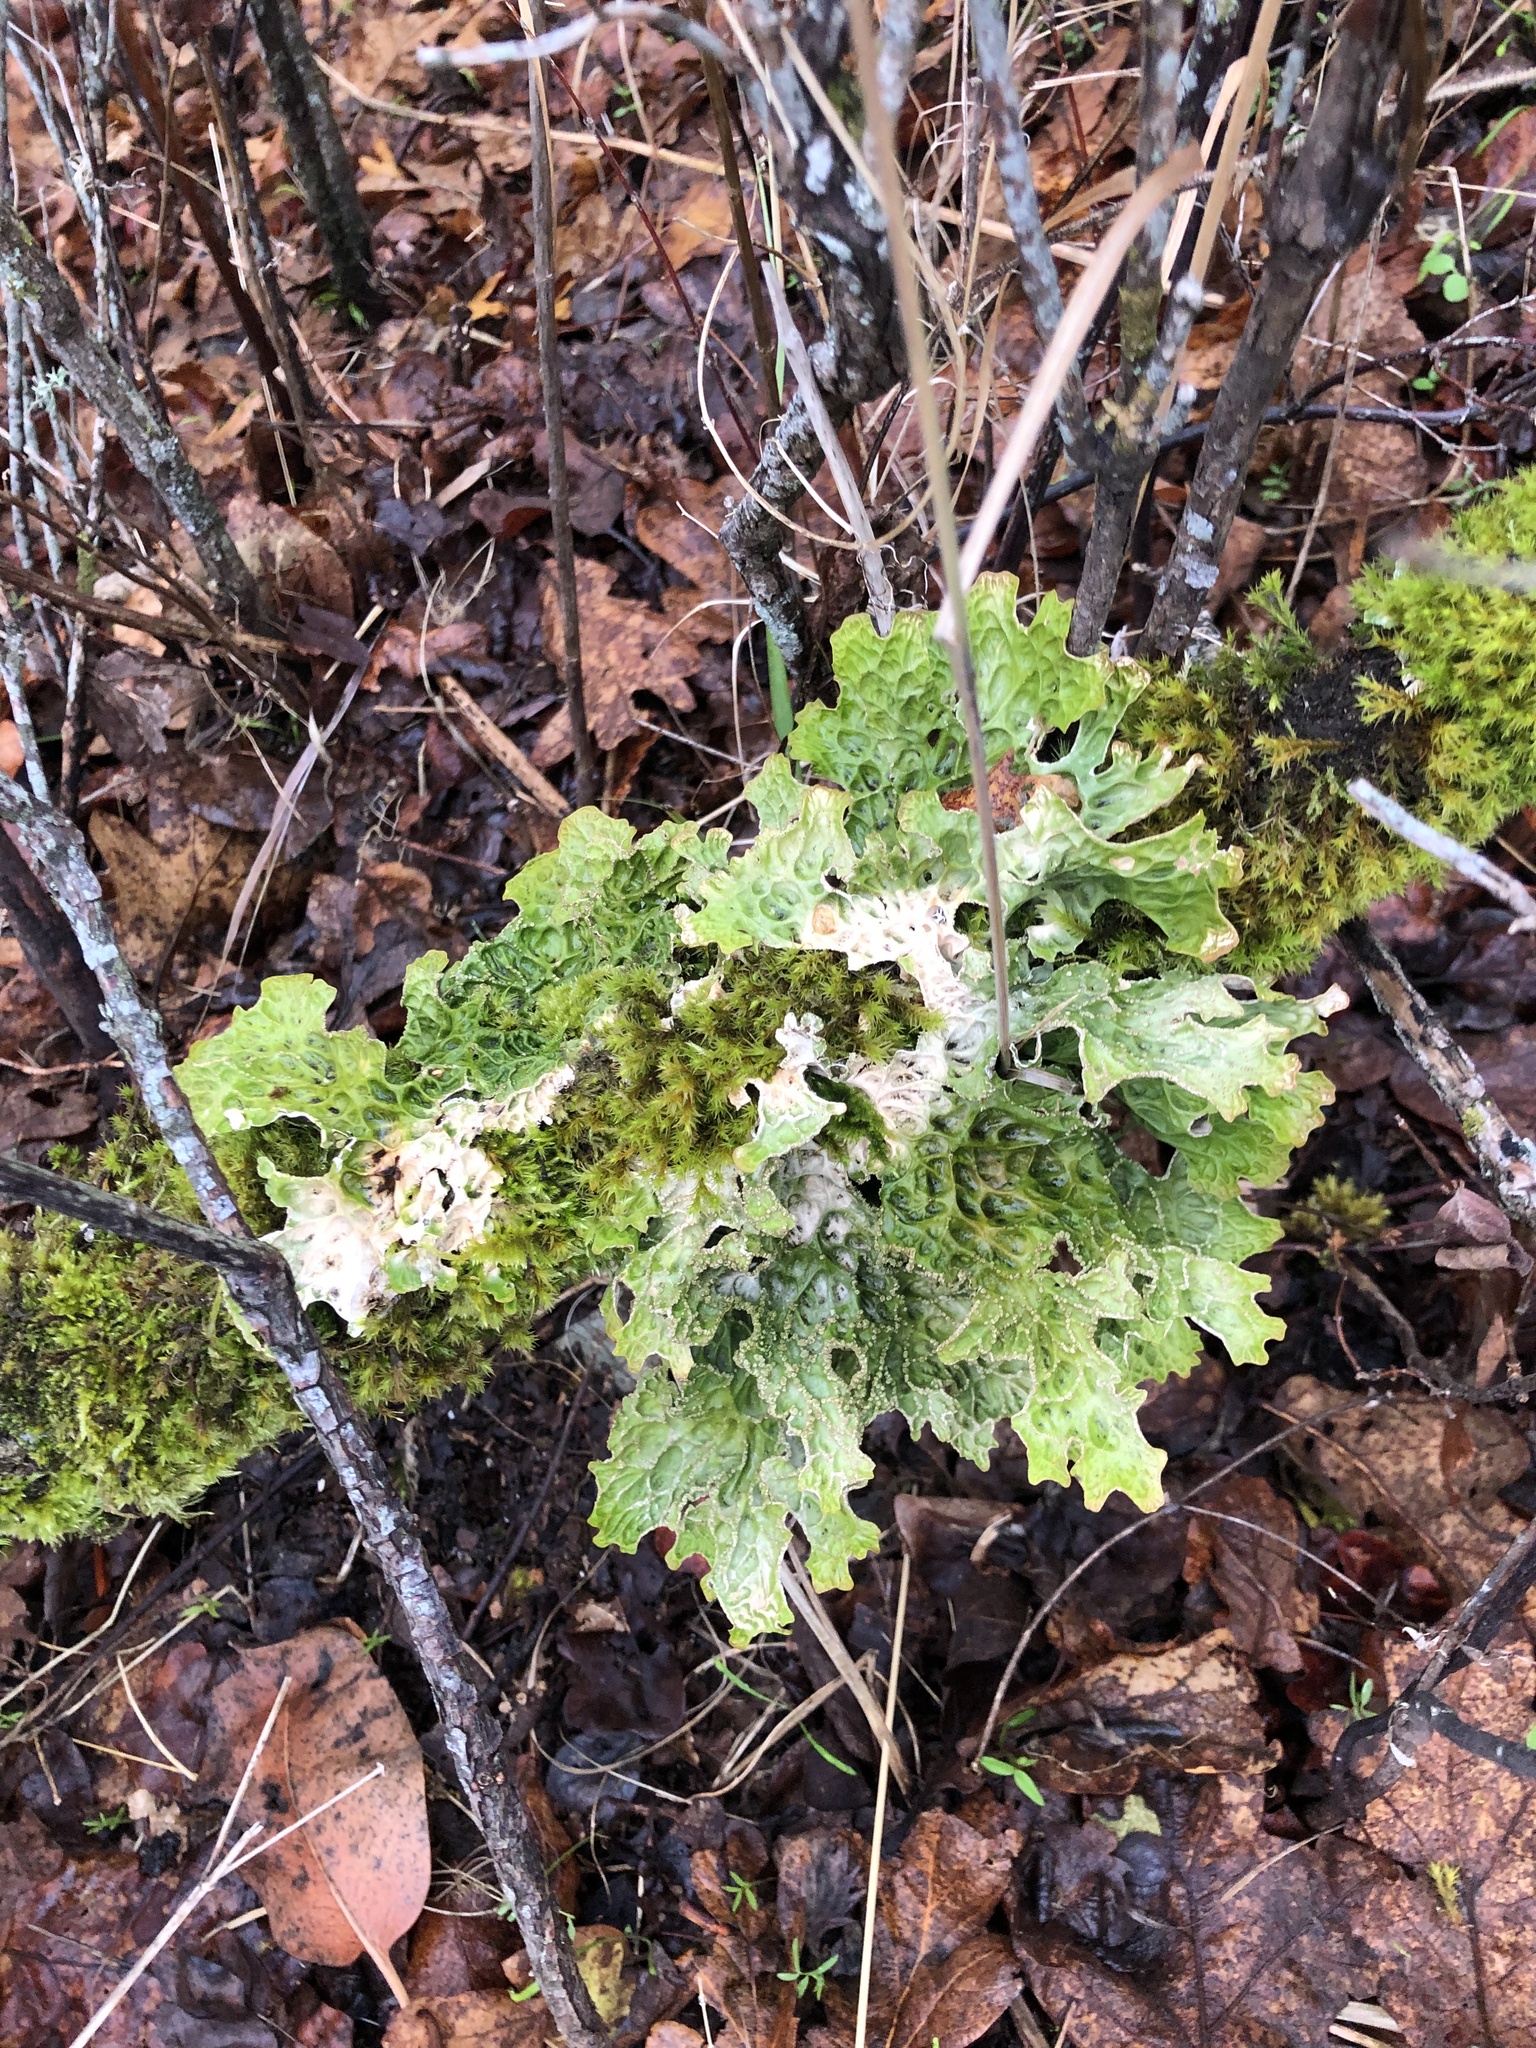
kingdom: Fungi
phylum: Ascomycota
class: Lecanoromycetes
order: Peltigerales
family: Lobariaceae
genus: Lobaria
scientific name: Lobaria pulmonaria
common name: Lungwort
